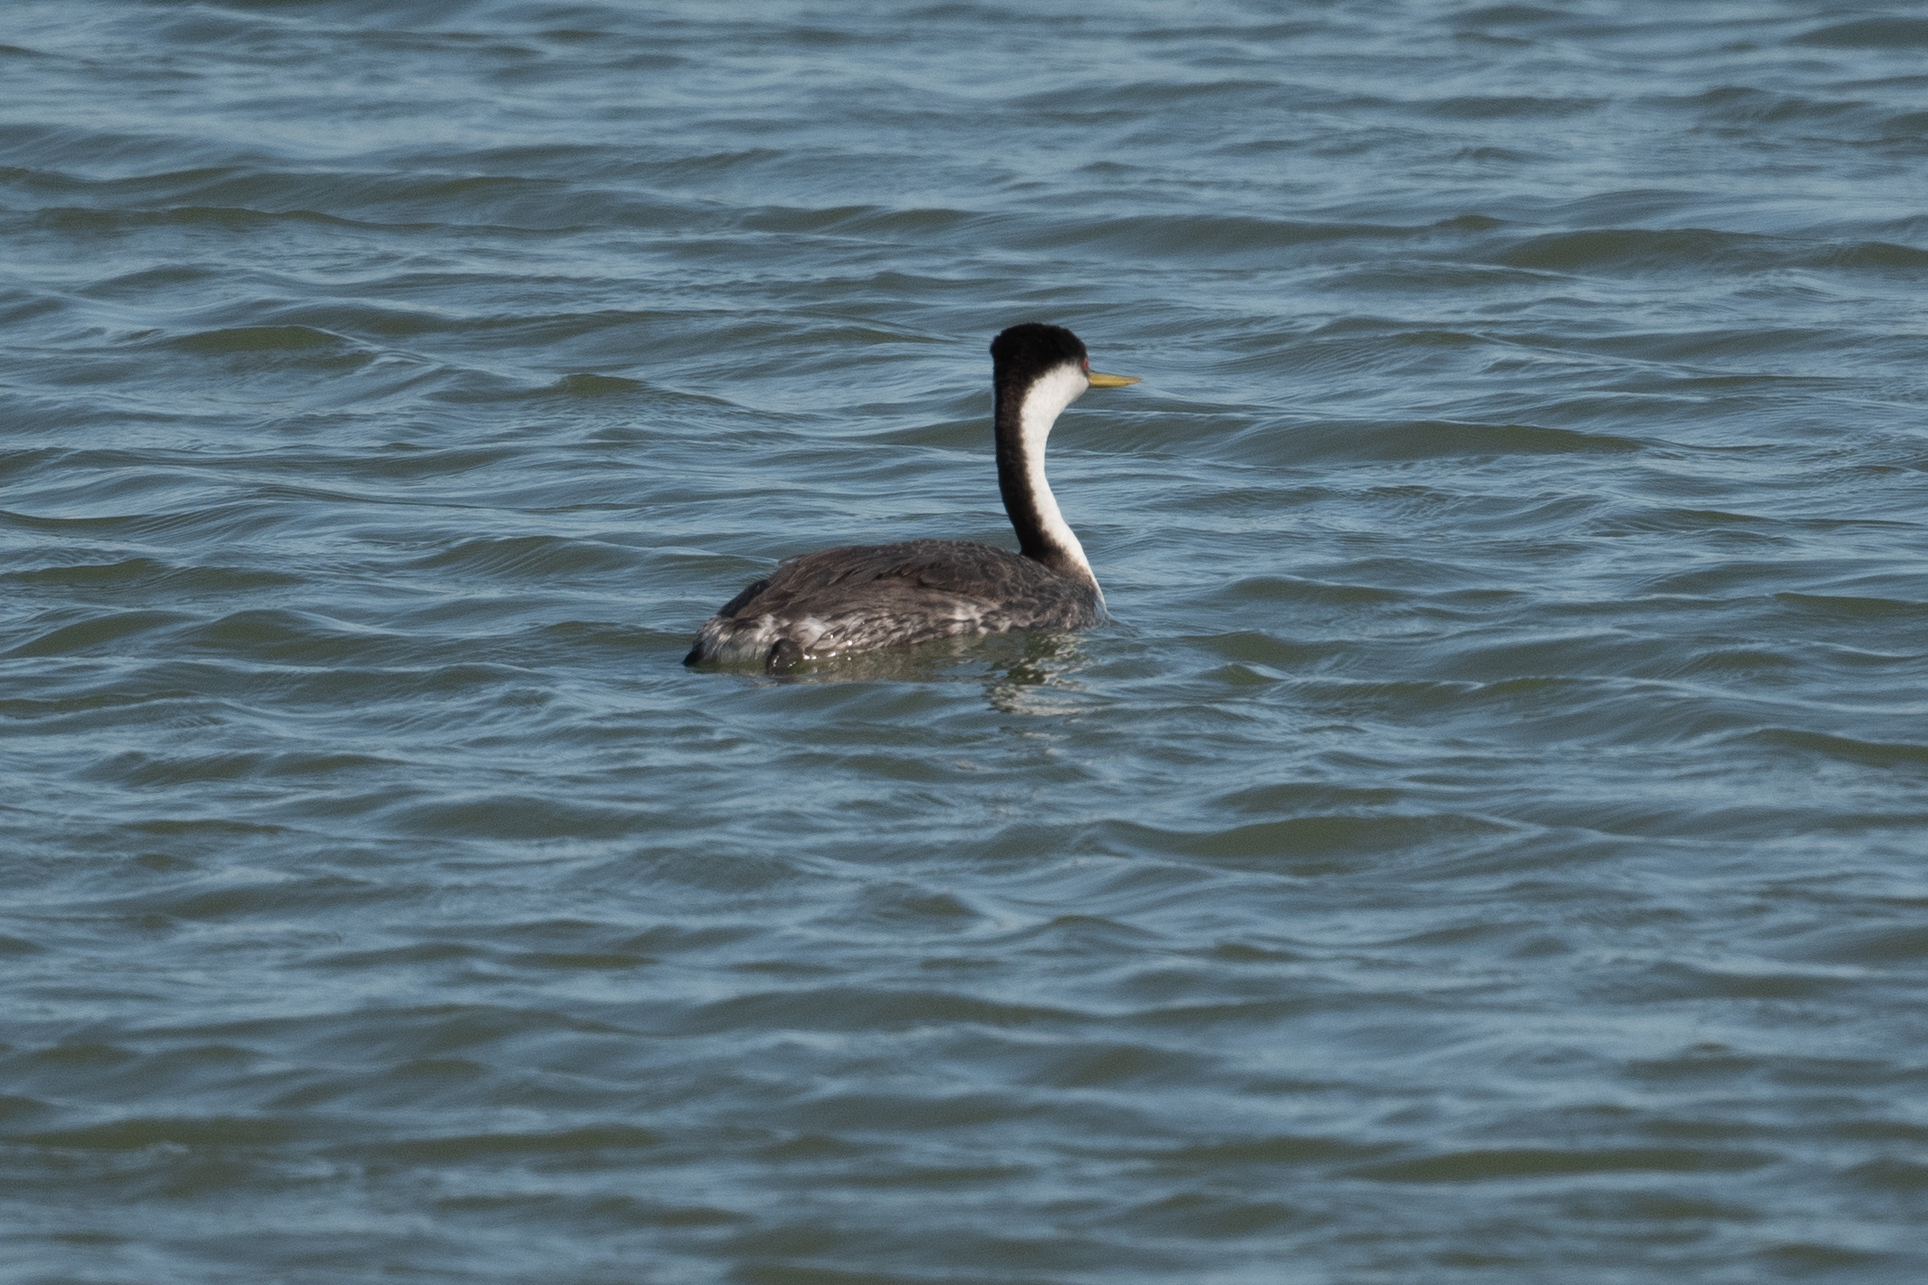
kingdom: Animalia
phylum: Chordata
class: Aves
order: Podicipediformes
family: Podicipedidae
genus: Aechmophorus
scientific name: Aechmophorus occidentalis
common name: Western grebe
